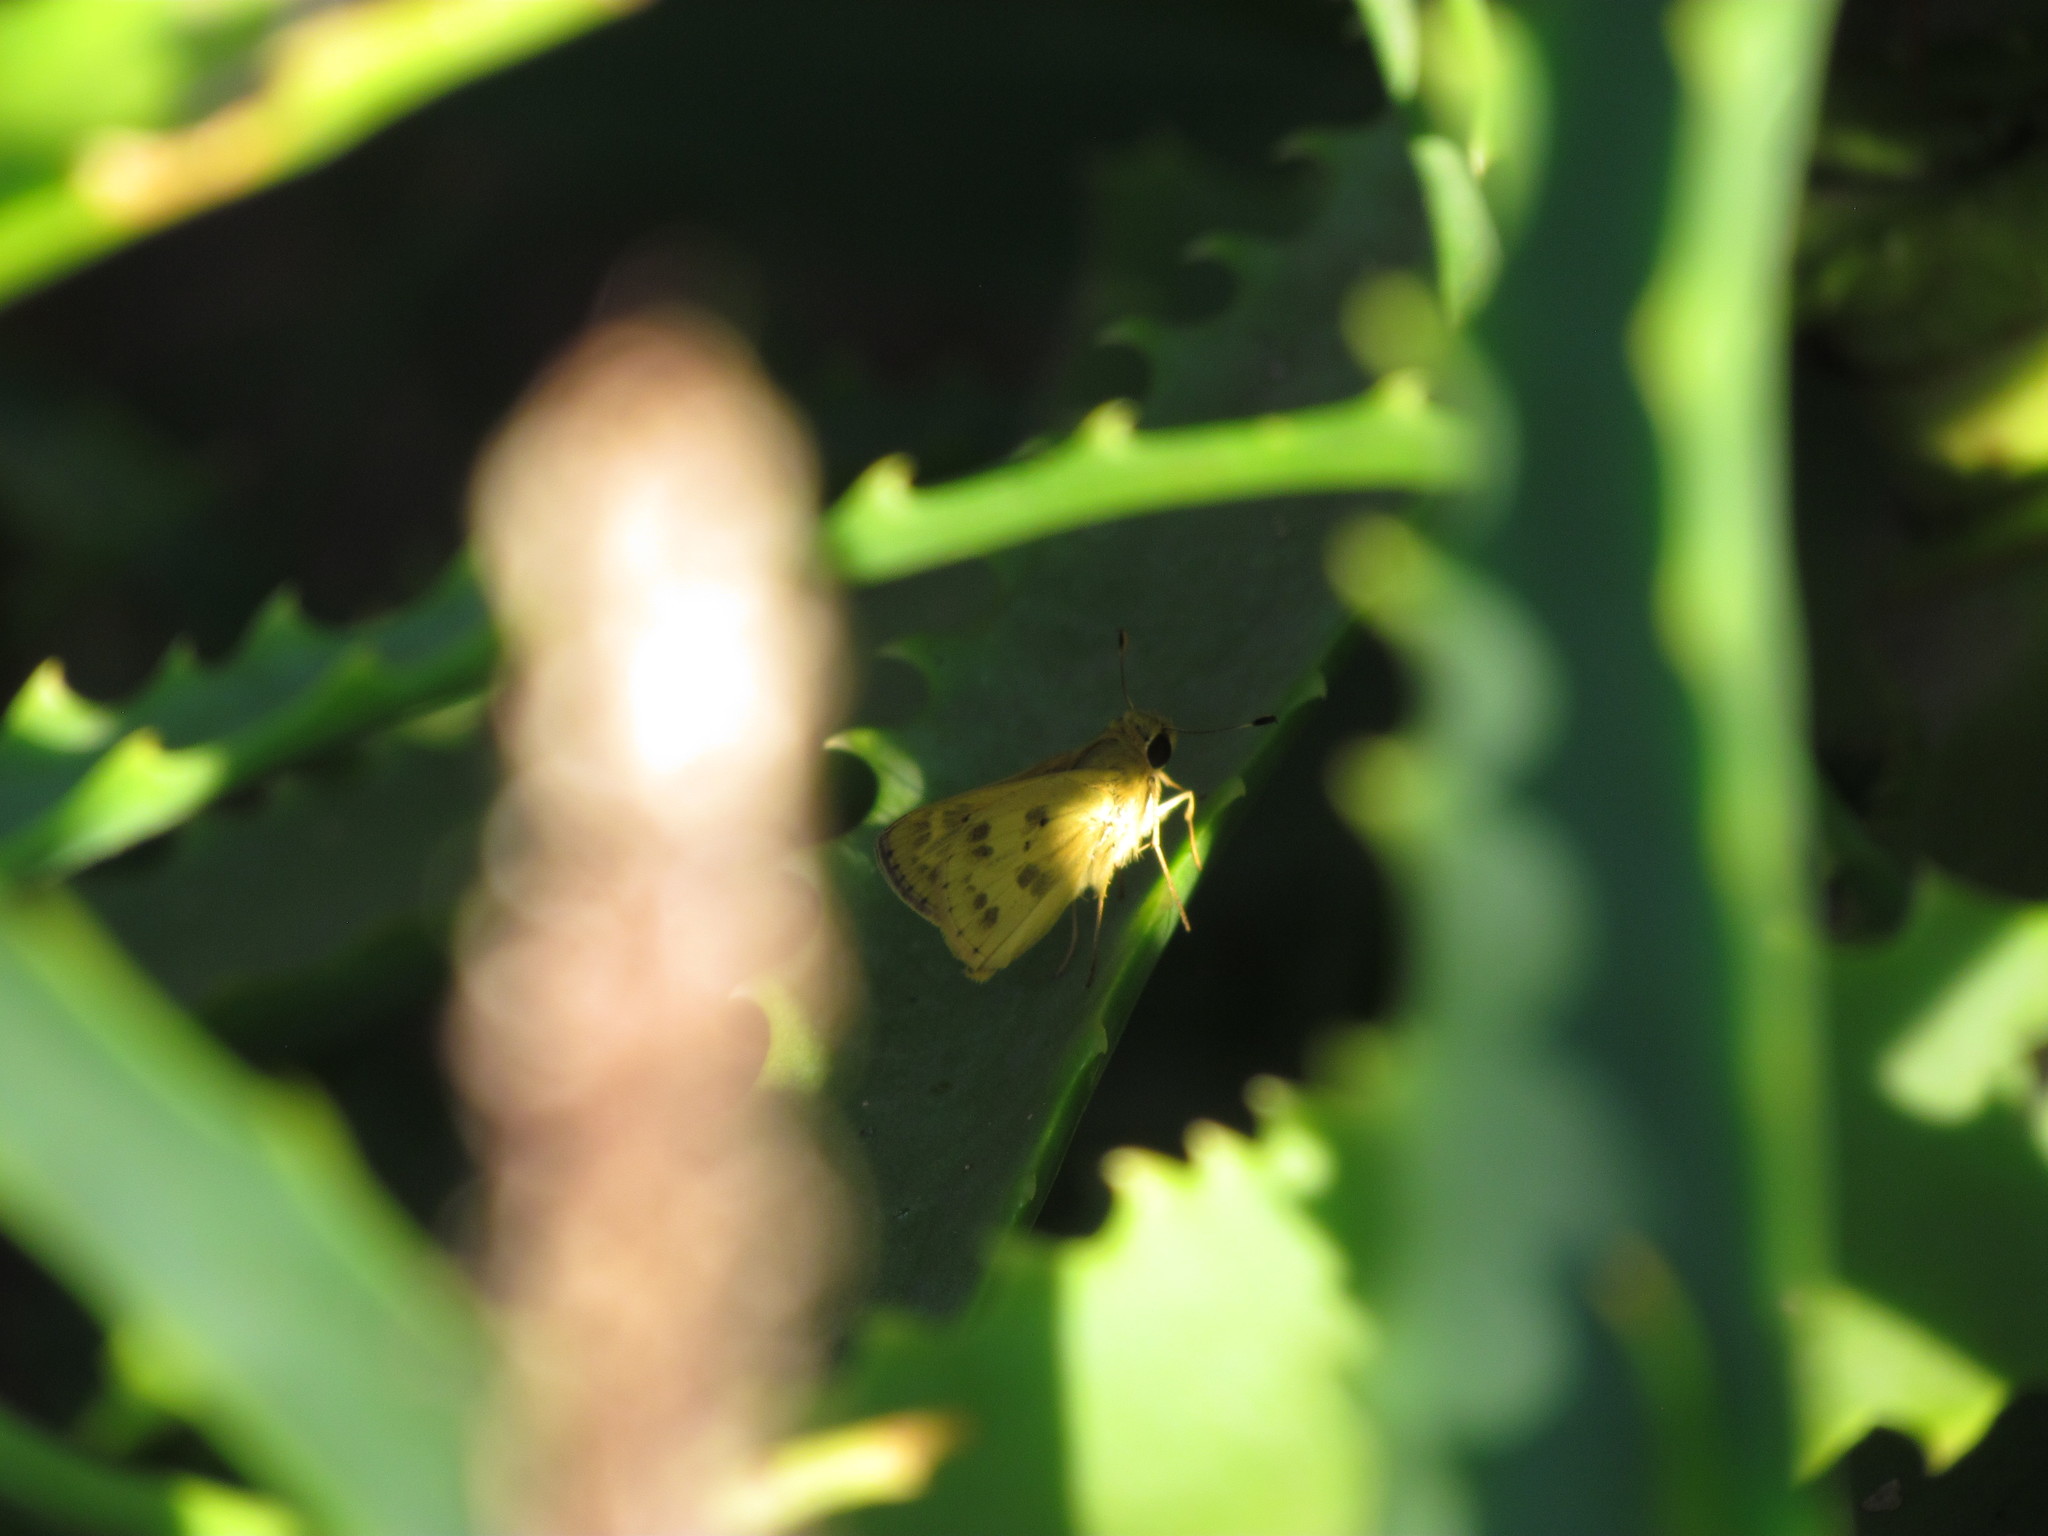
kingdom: Animalia
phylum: Arthropoda
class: Insecta
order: Lepidoptera
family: Hesperiidae
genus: Polites
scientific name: Polites vibex
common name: Whirlabout
